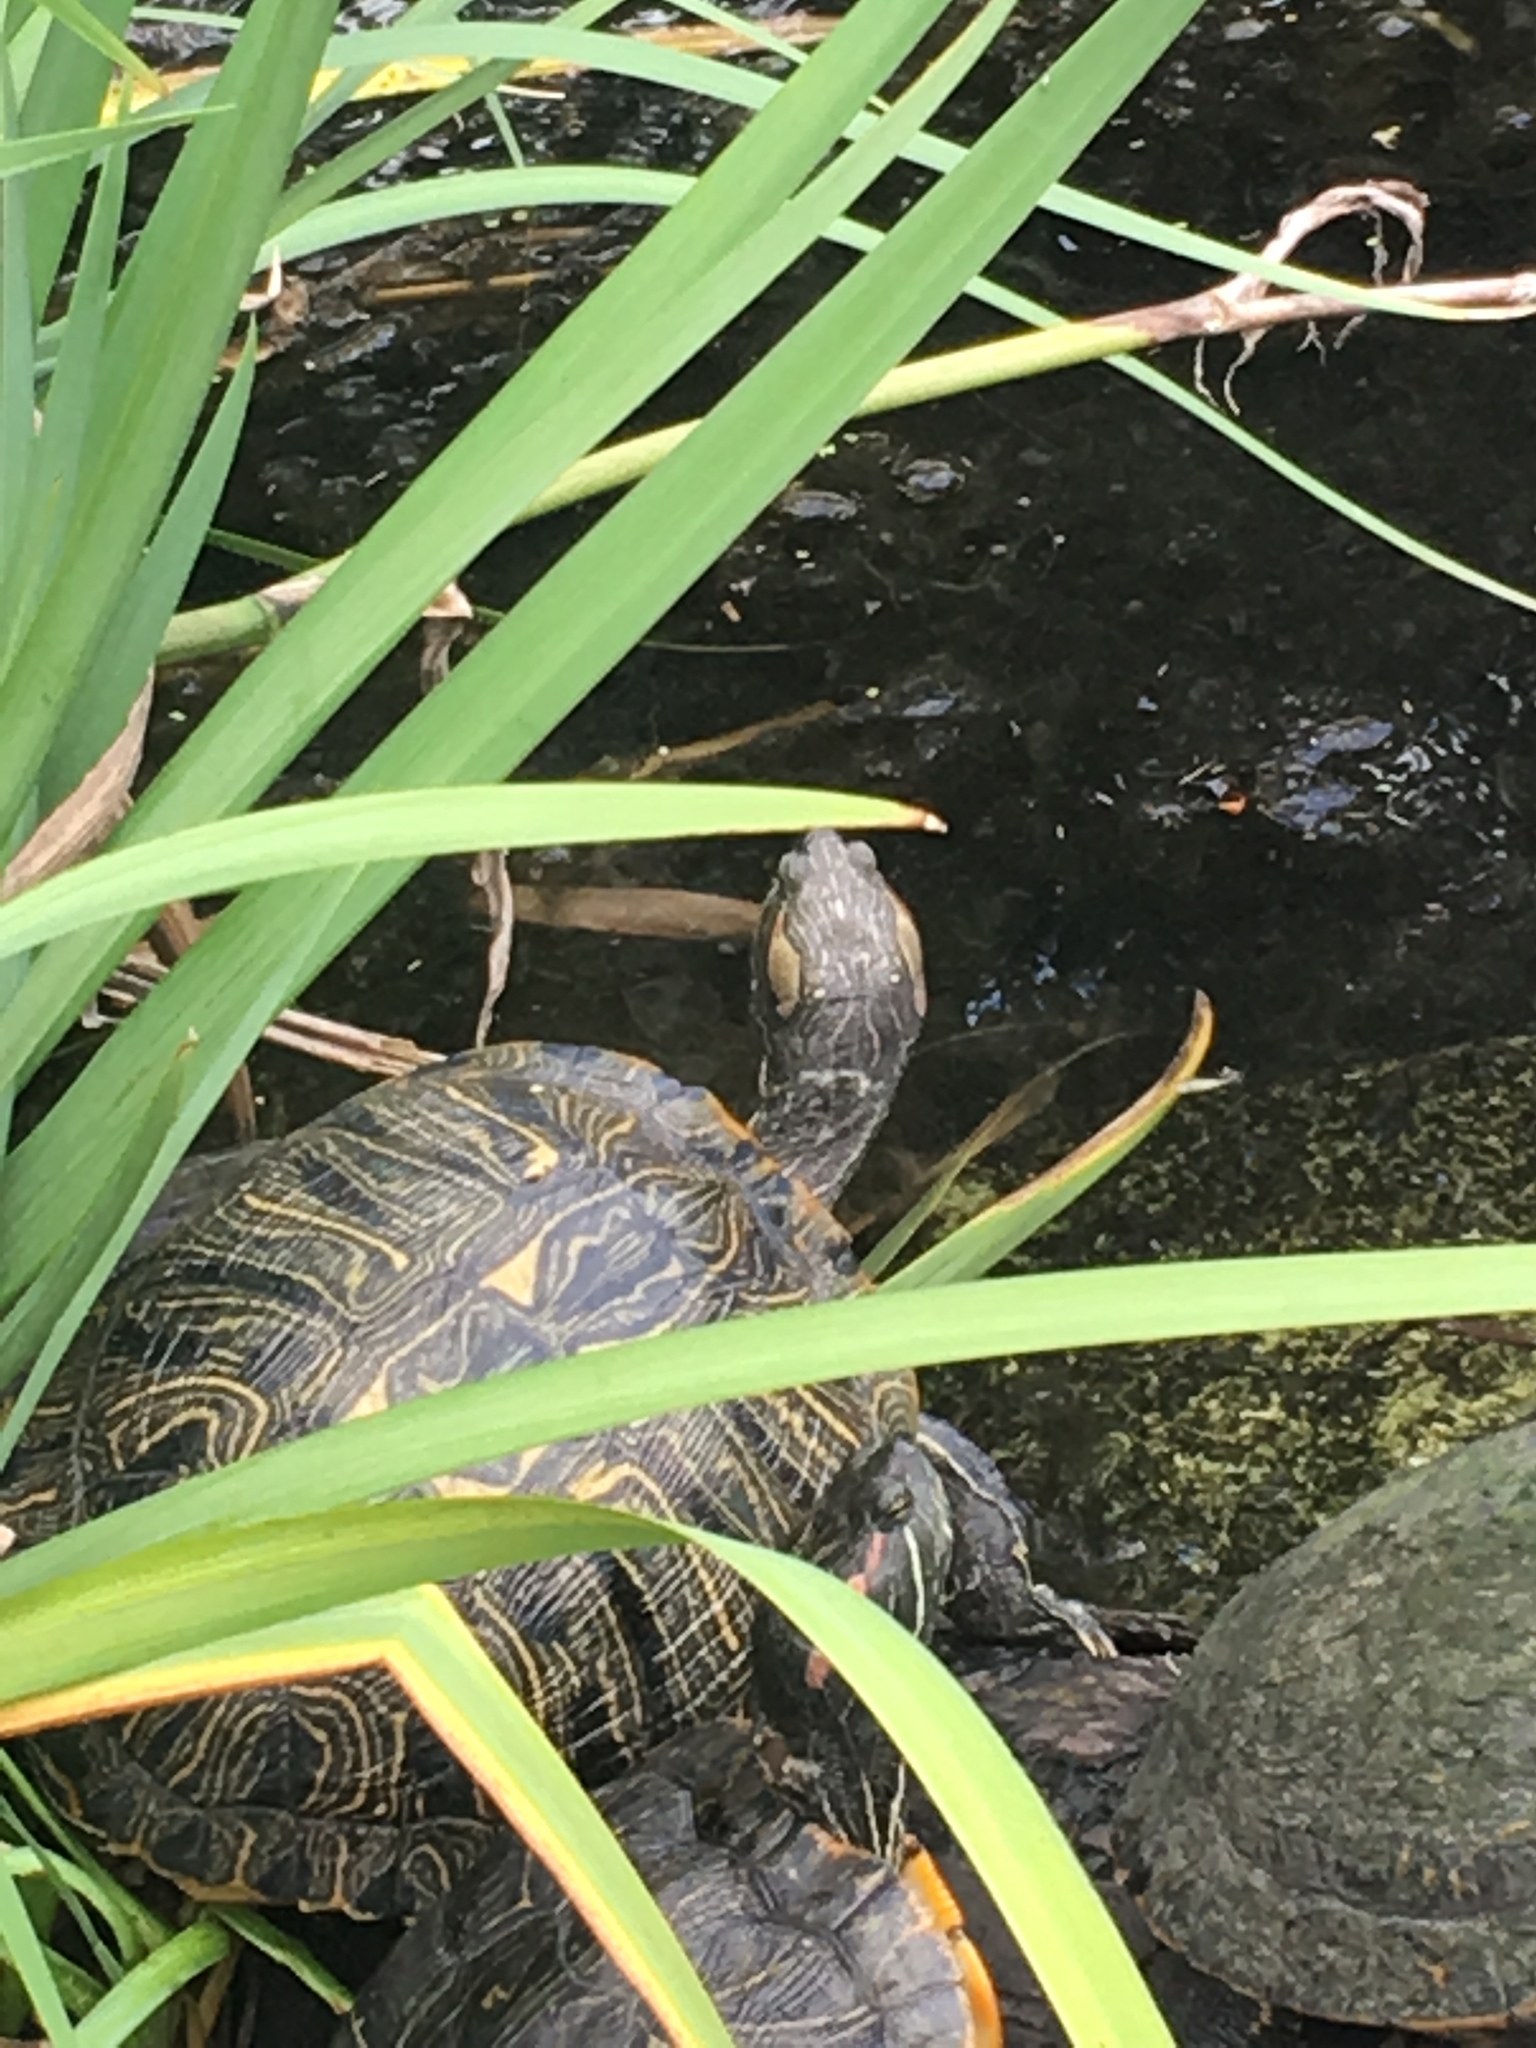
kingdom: Animalia
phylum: Chordata
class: Testudines
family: Emydidae
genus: Trachemys
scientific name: Trachemys scripta
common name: Slider
